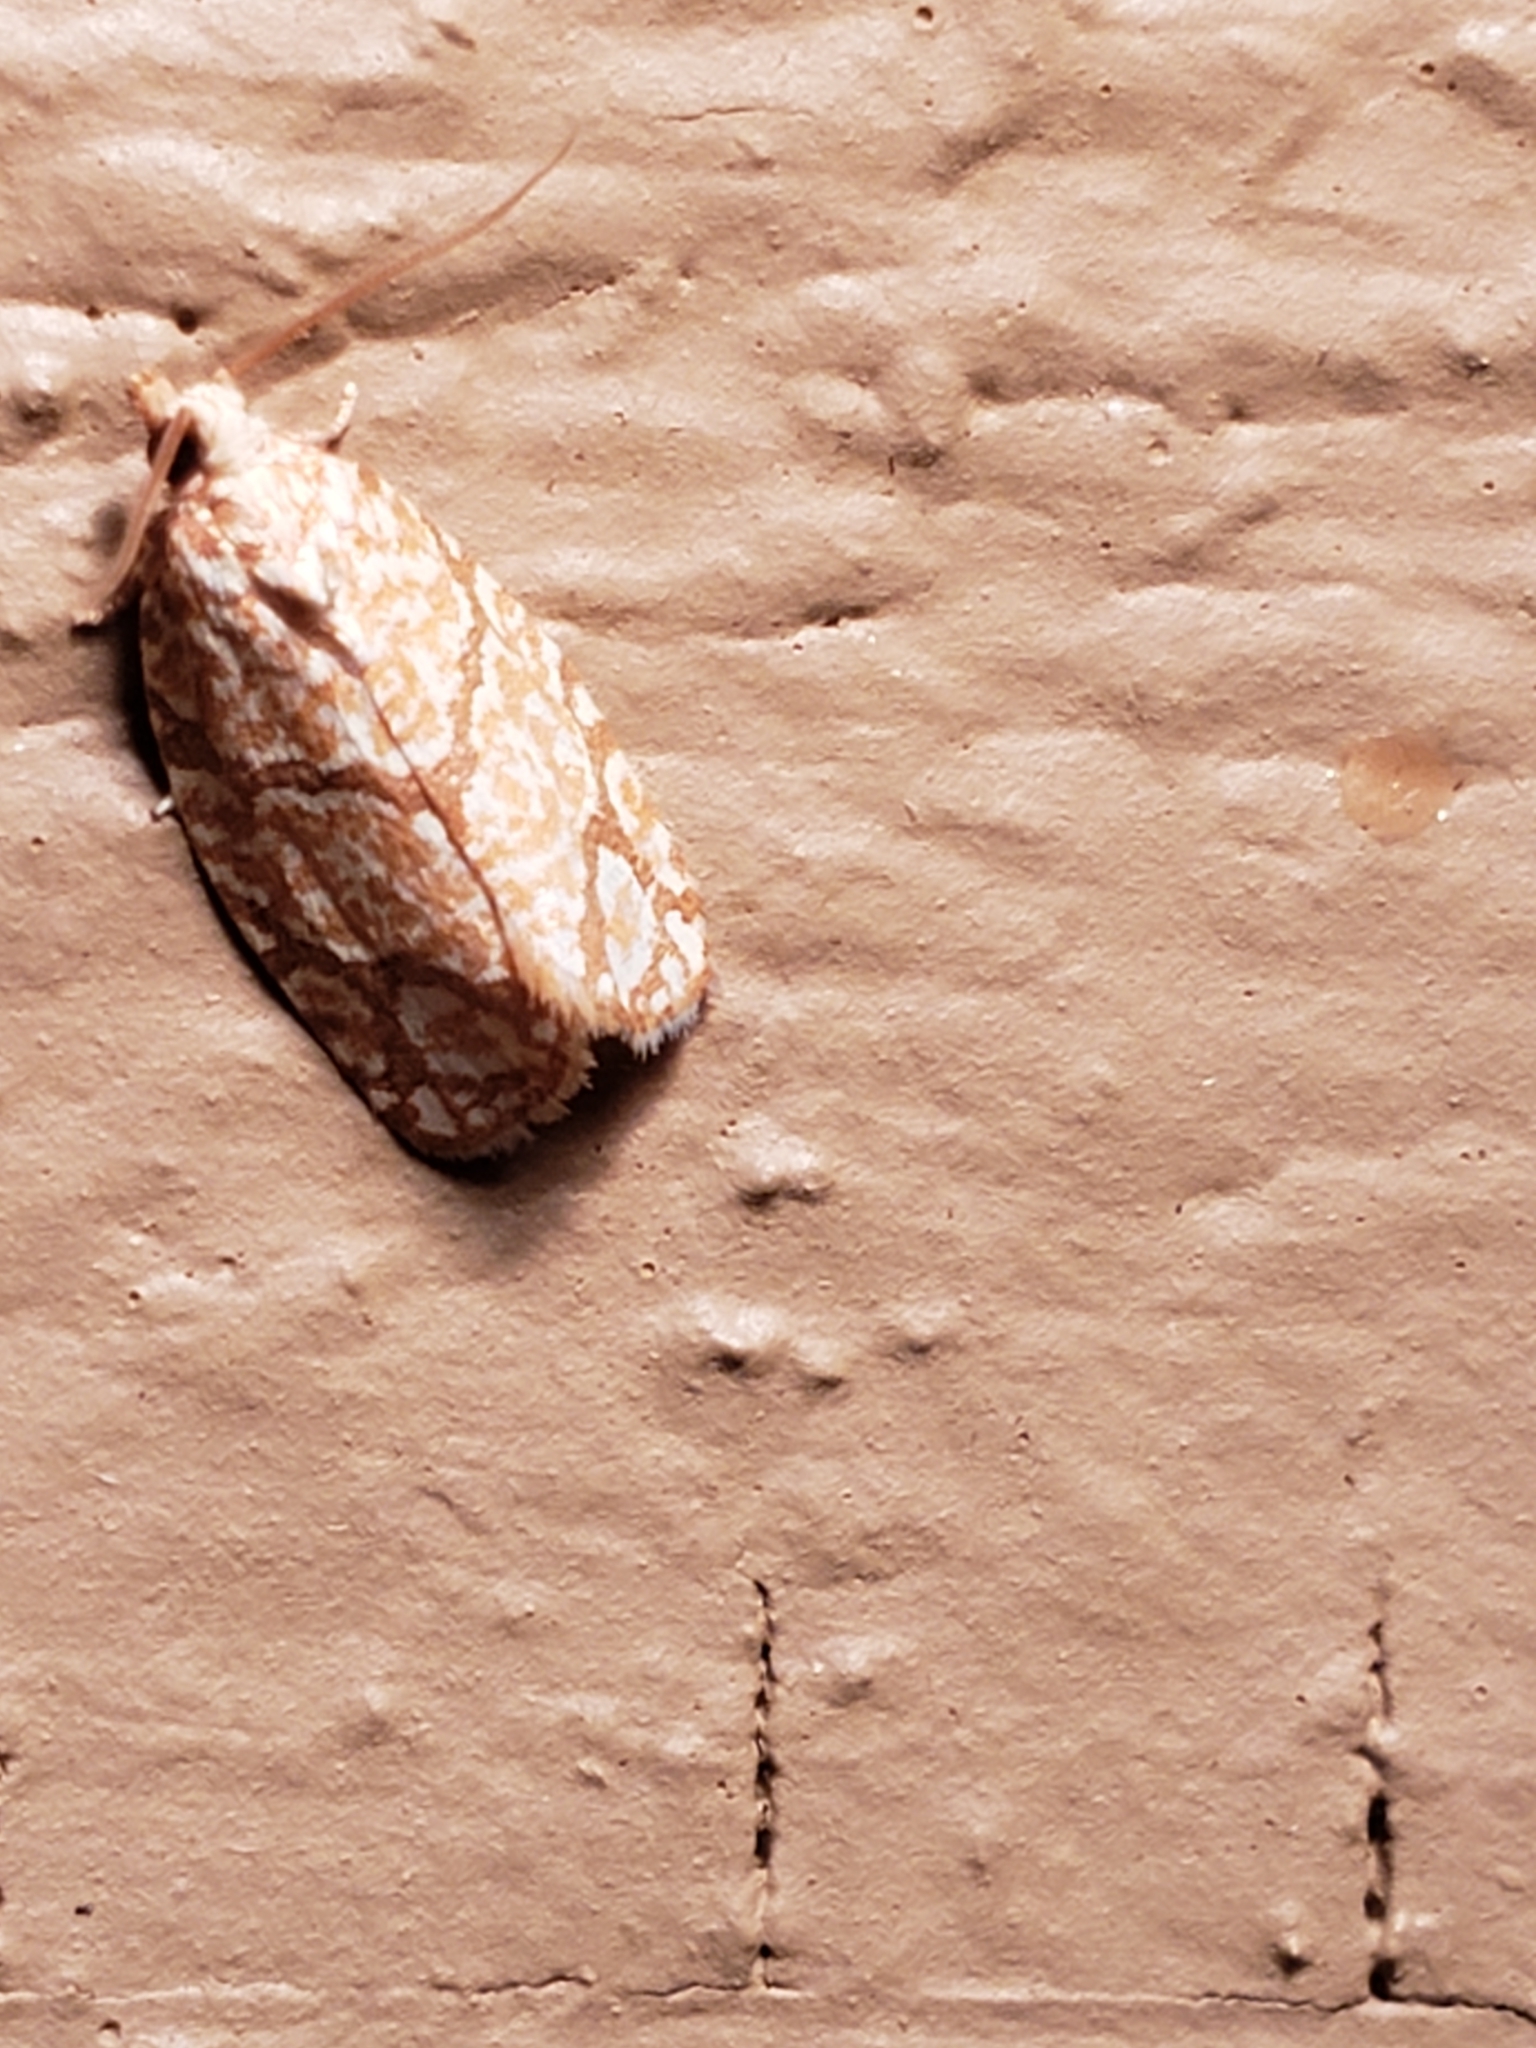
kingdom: Animalia
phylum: Arthropoda
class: Insecta
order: Lepidoptera
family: Tortricidae
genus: Argyrotaenia
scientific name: Argyrotaenia quercifoliana
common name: Yellow-winged oak leafroller moth
